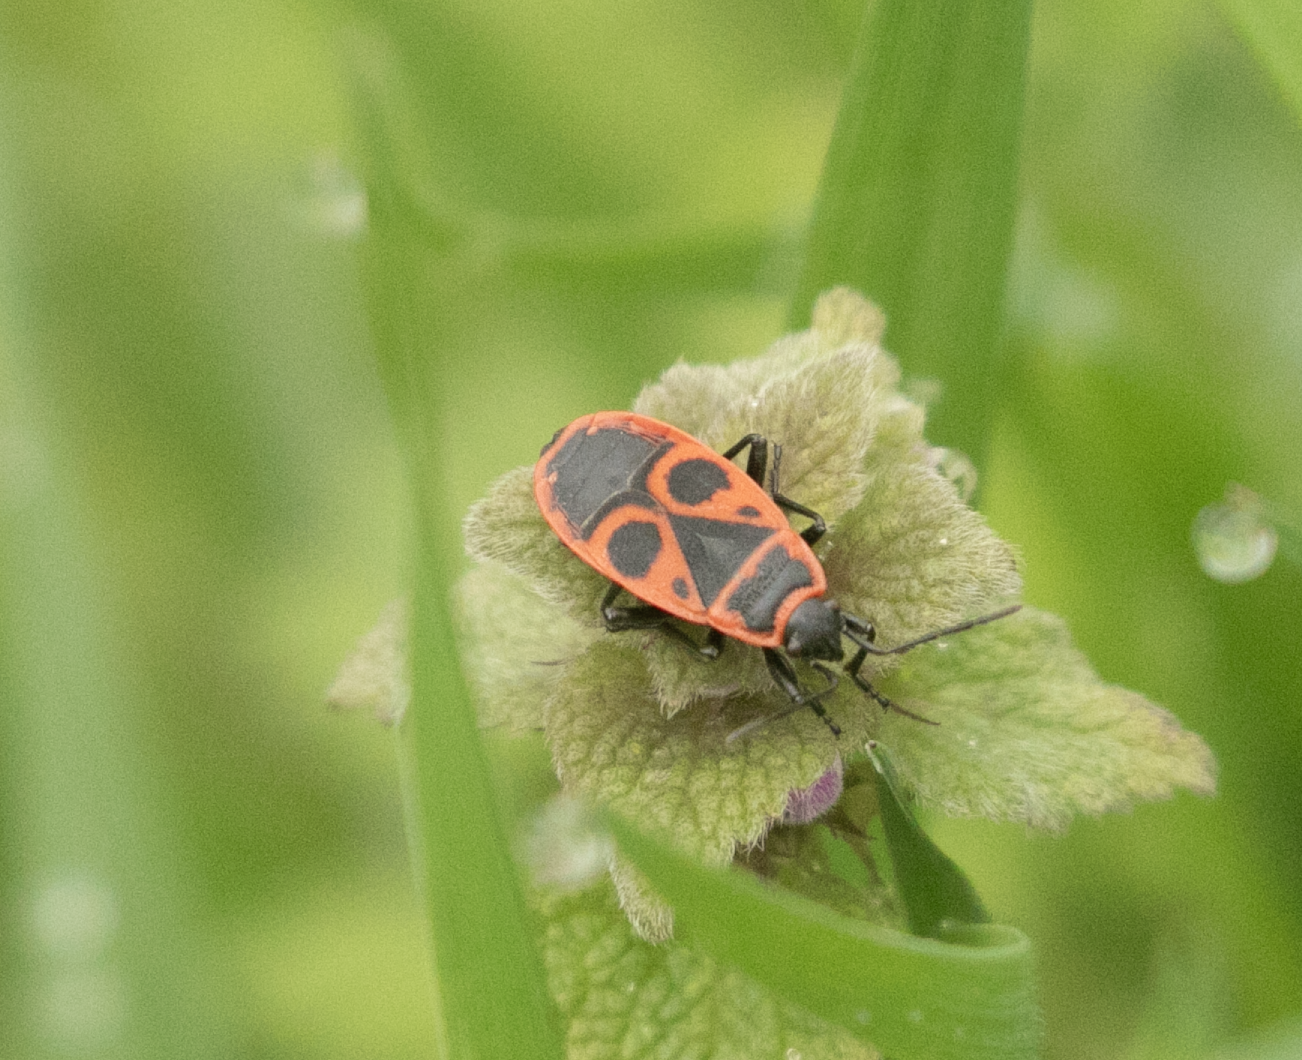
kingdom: Animalia
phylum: Arthropoda
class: Insecta
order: Hemiptera
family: Pyrrhocoridae
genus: Pyrrhocoris
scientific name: Pyrrhocoris apterus
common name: Firebug
